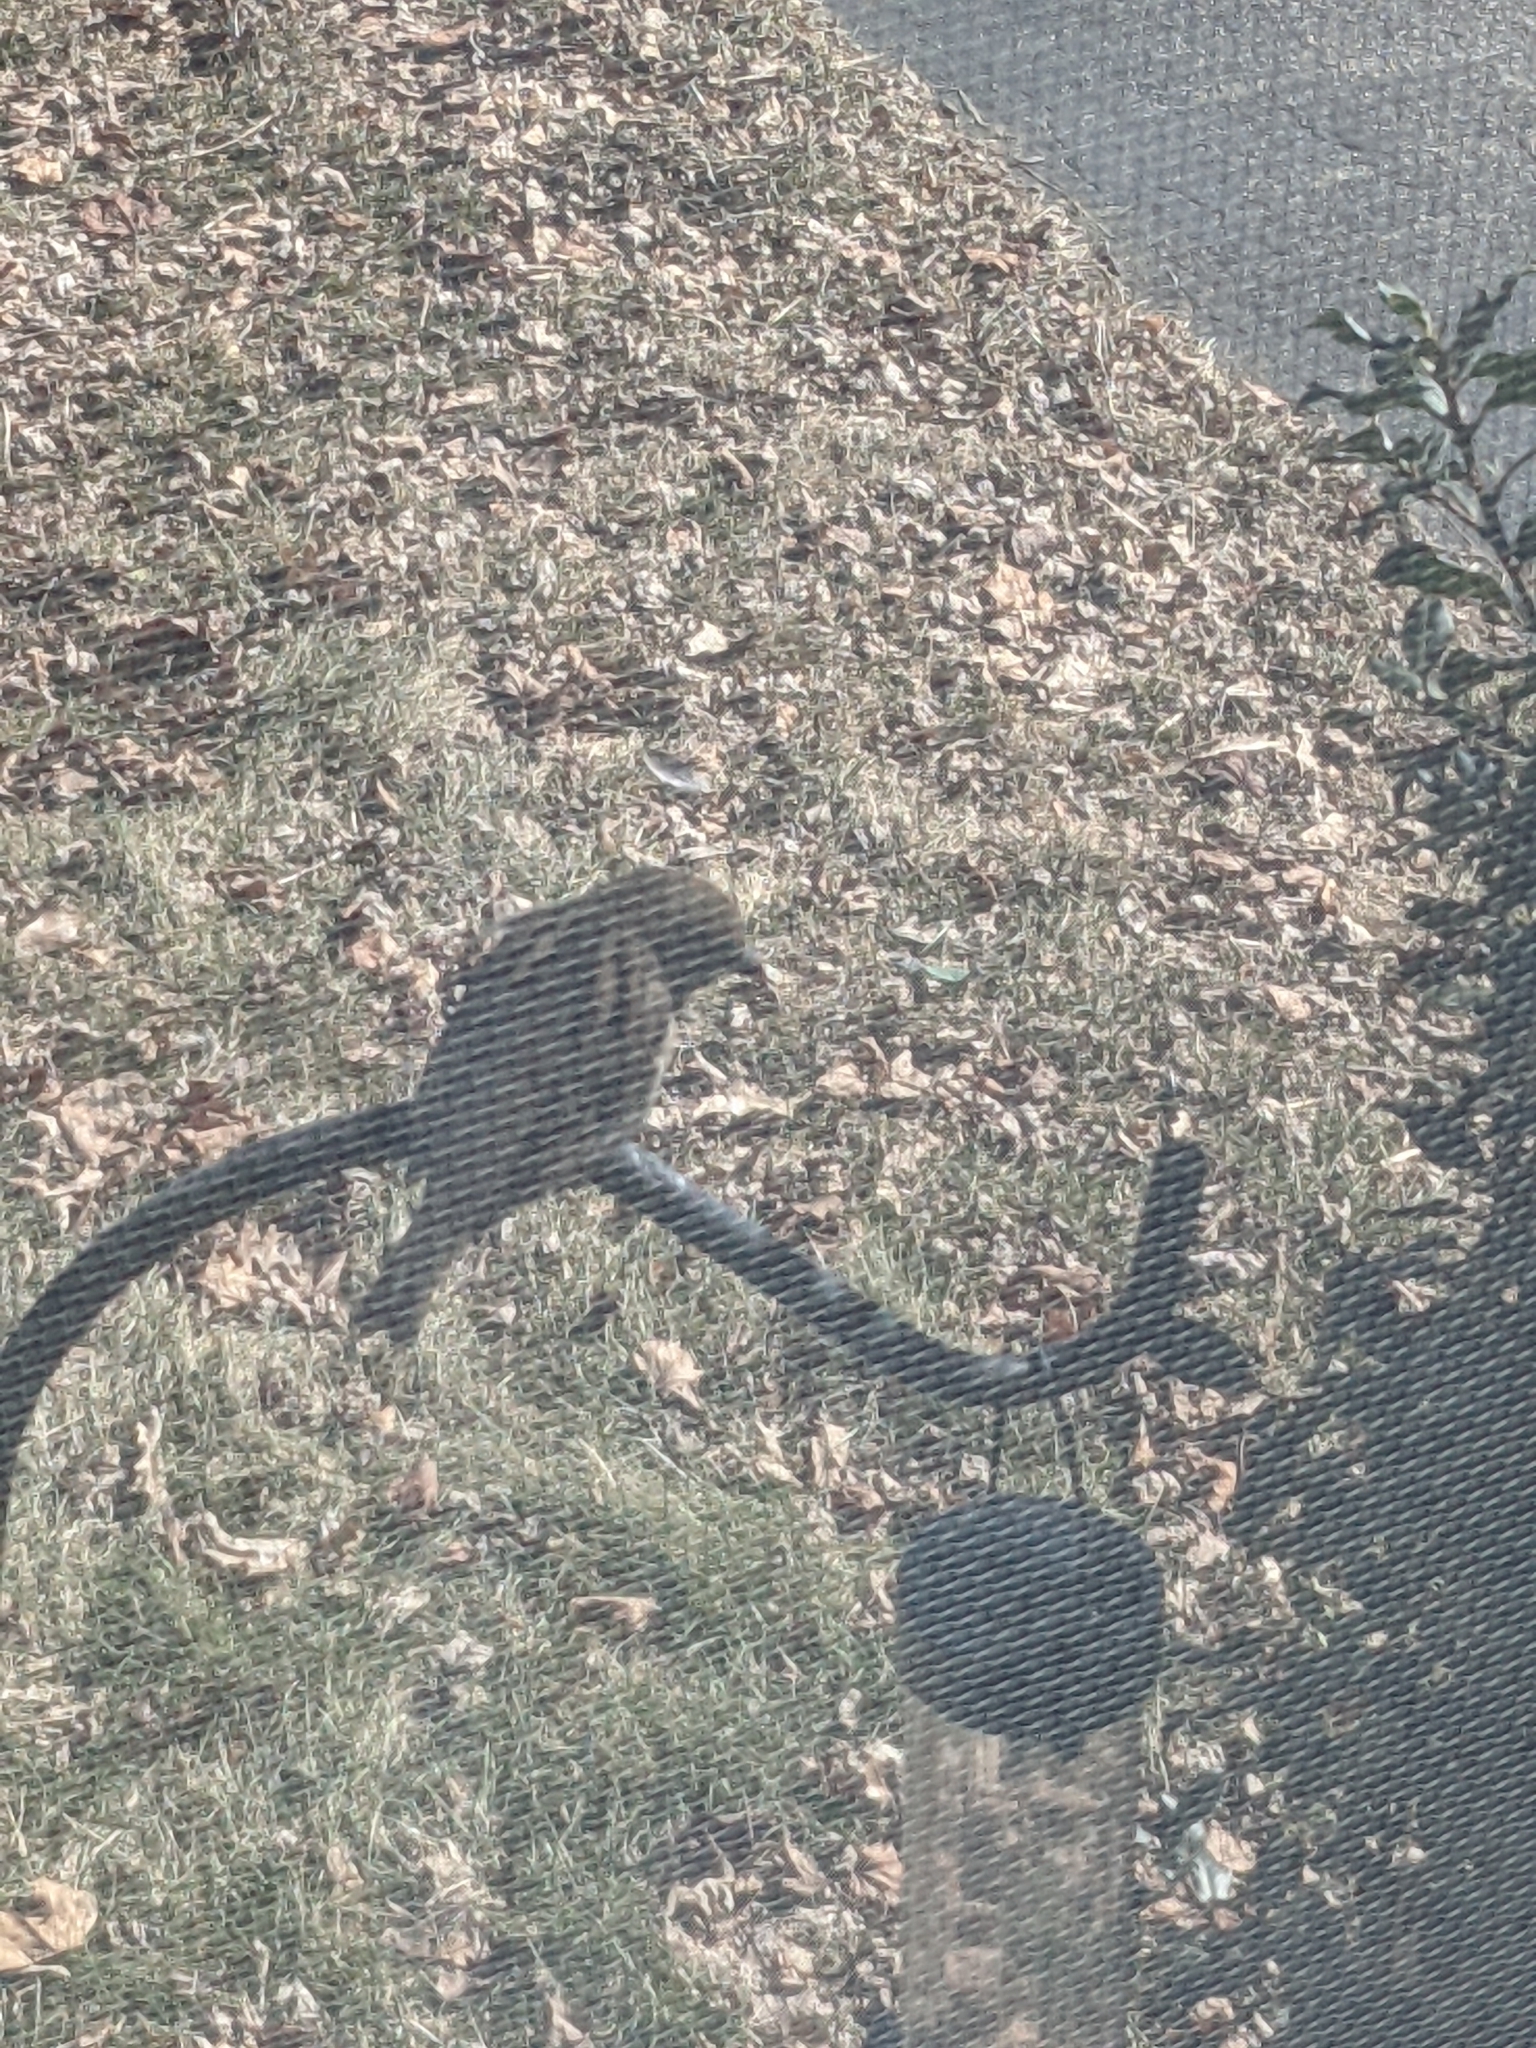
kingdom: Animalia
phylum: Chordata
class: Aves
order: Passeriformes
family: Passeridae
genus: Passer
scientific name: Passer domesticus
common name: House sparrow
